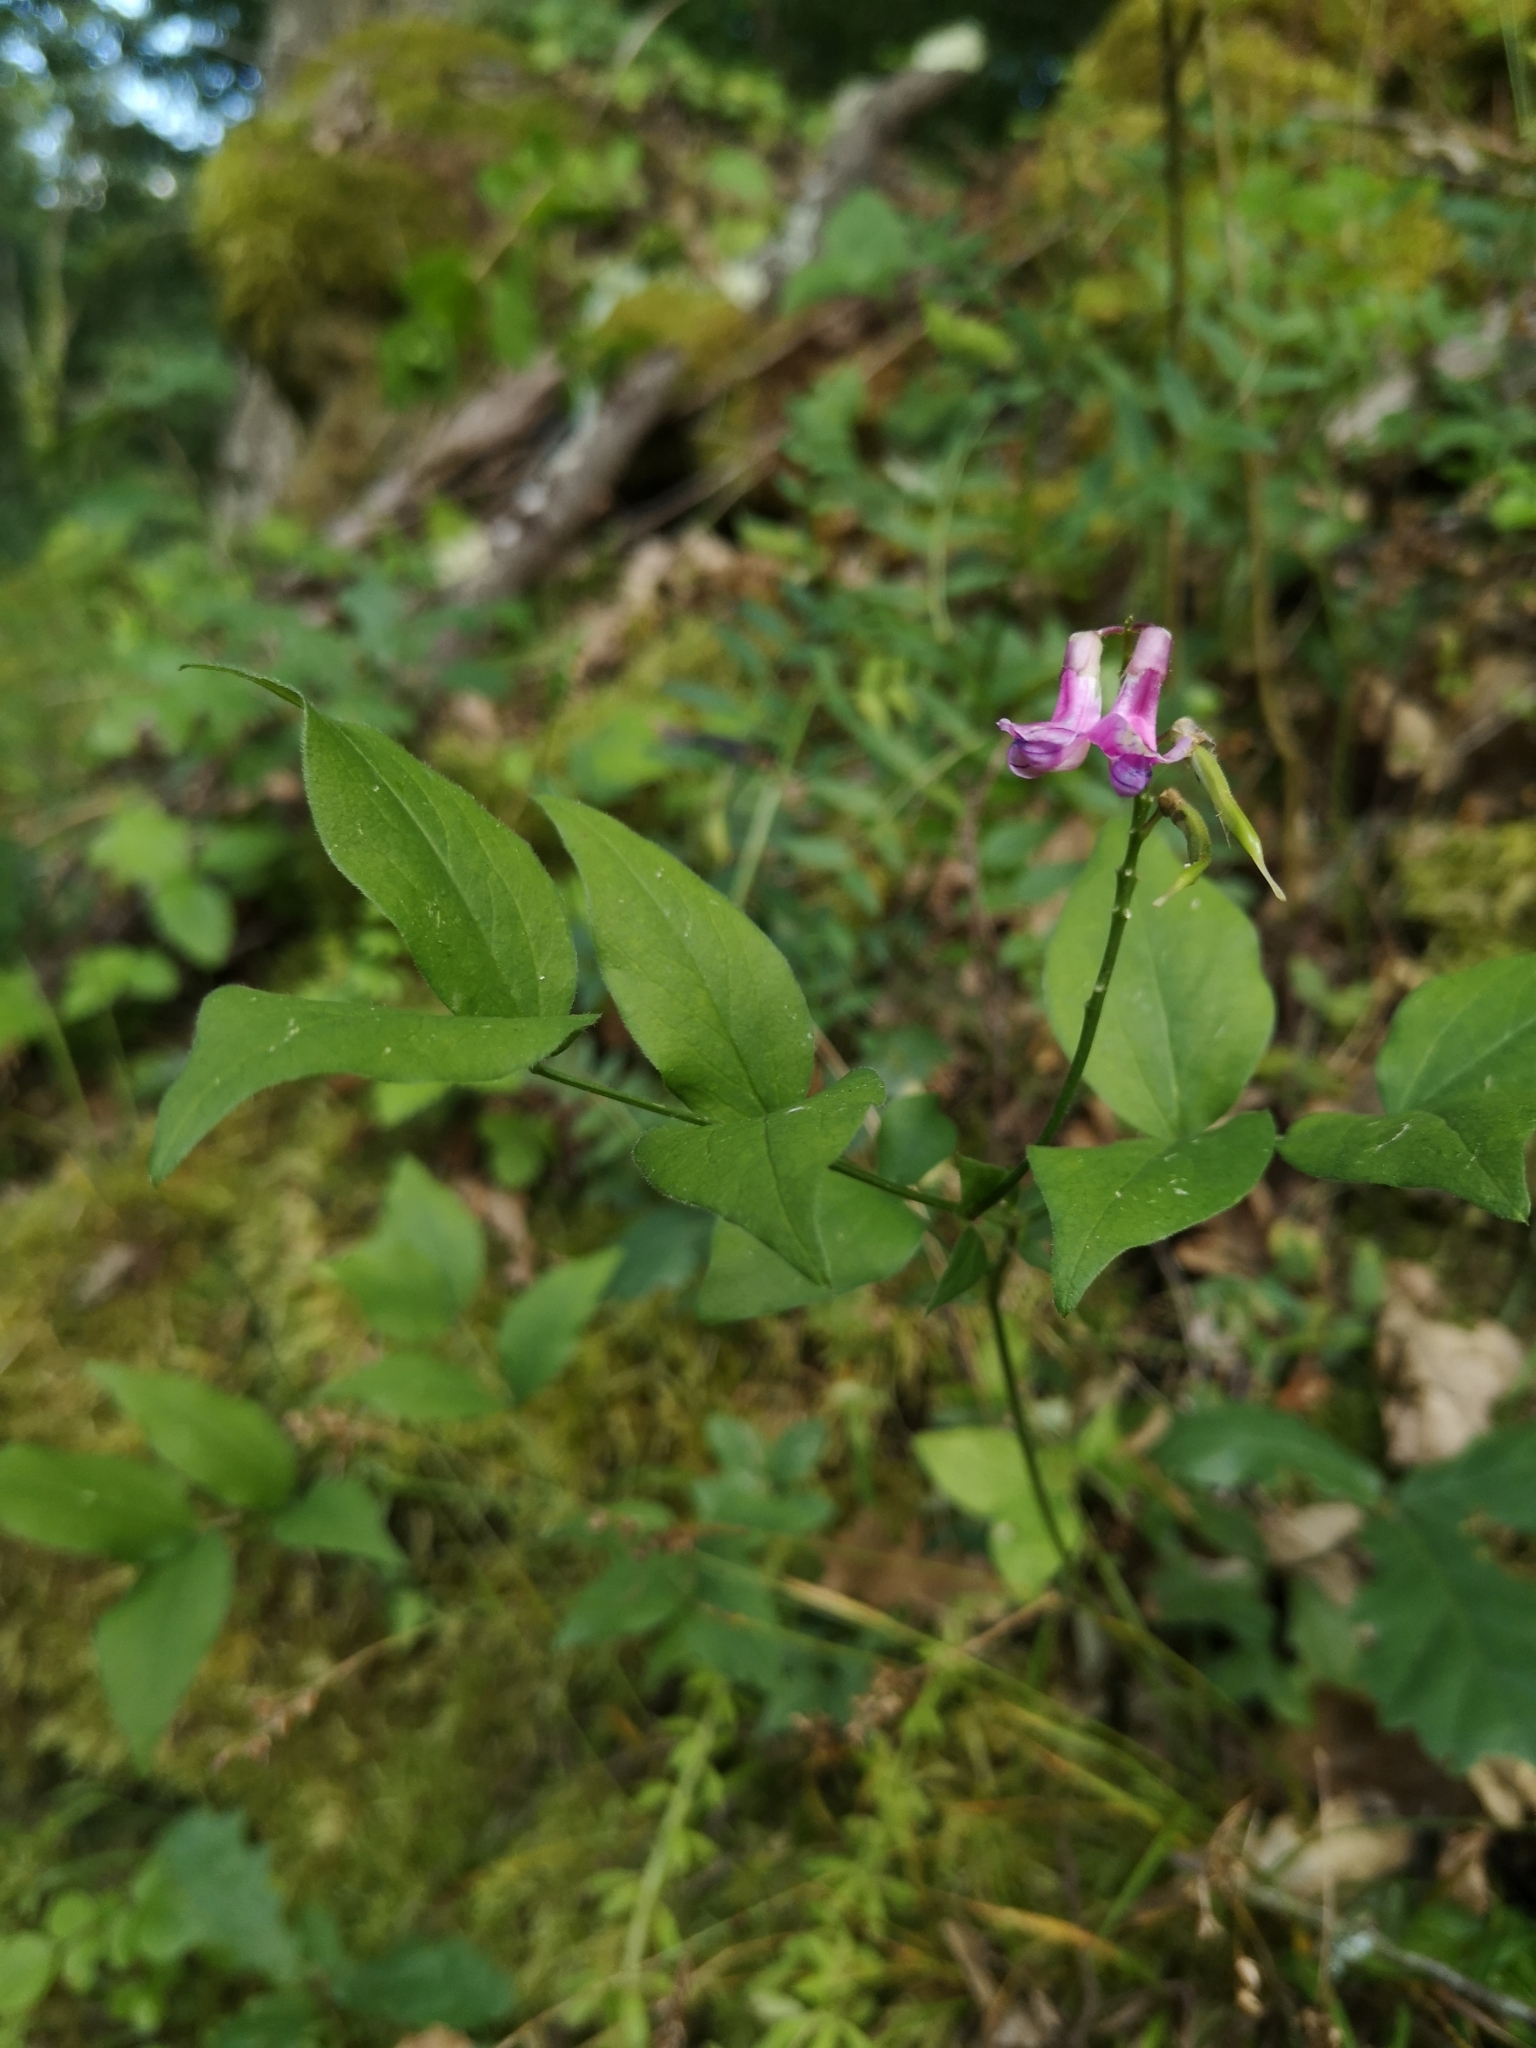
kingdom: Plantae
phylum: Tracheophyta
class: Magnoliopsida
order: Fabales
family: Fabaceae
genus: Lathyrus
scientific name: Lathyrus venetus
